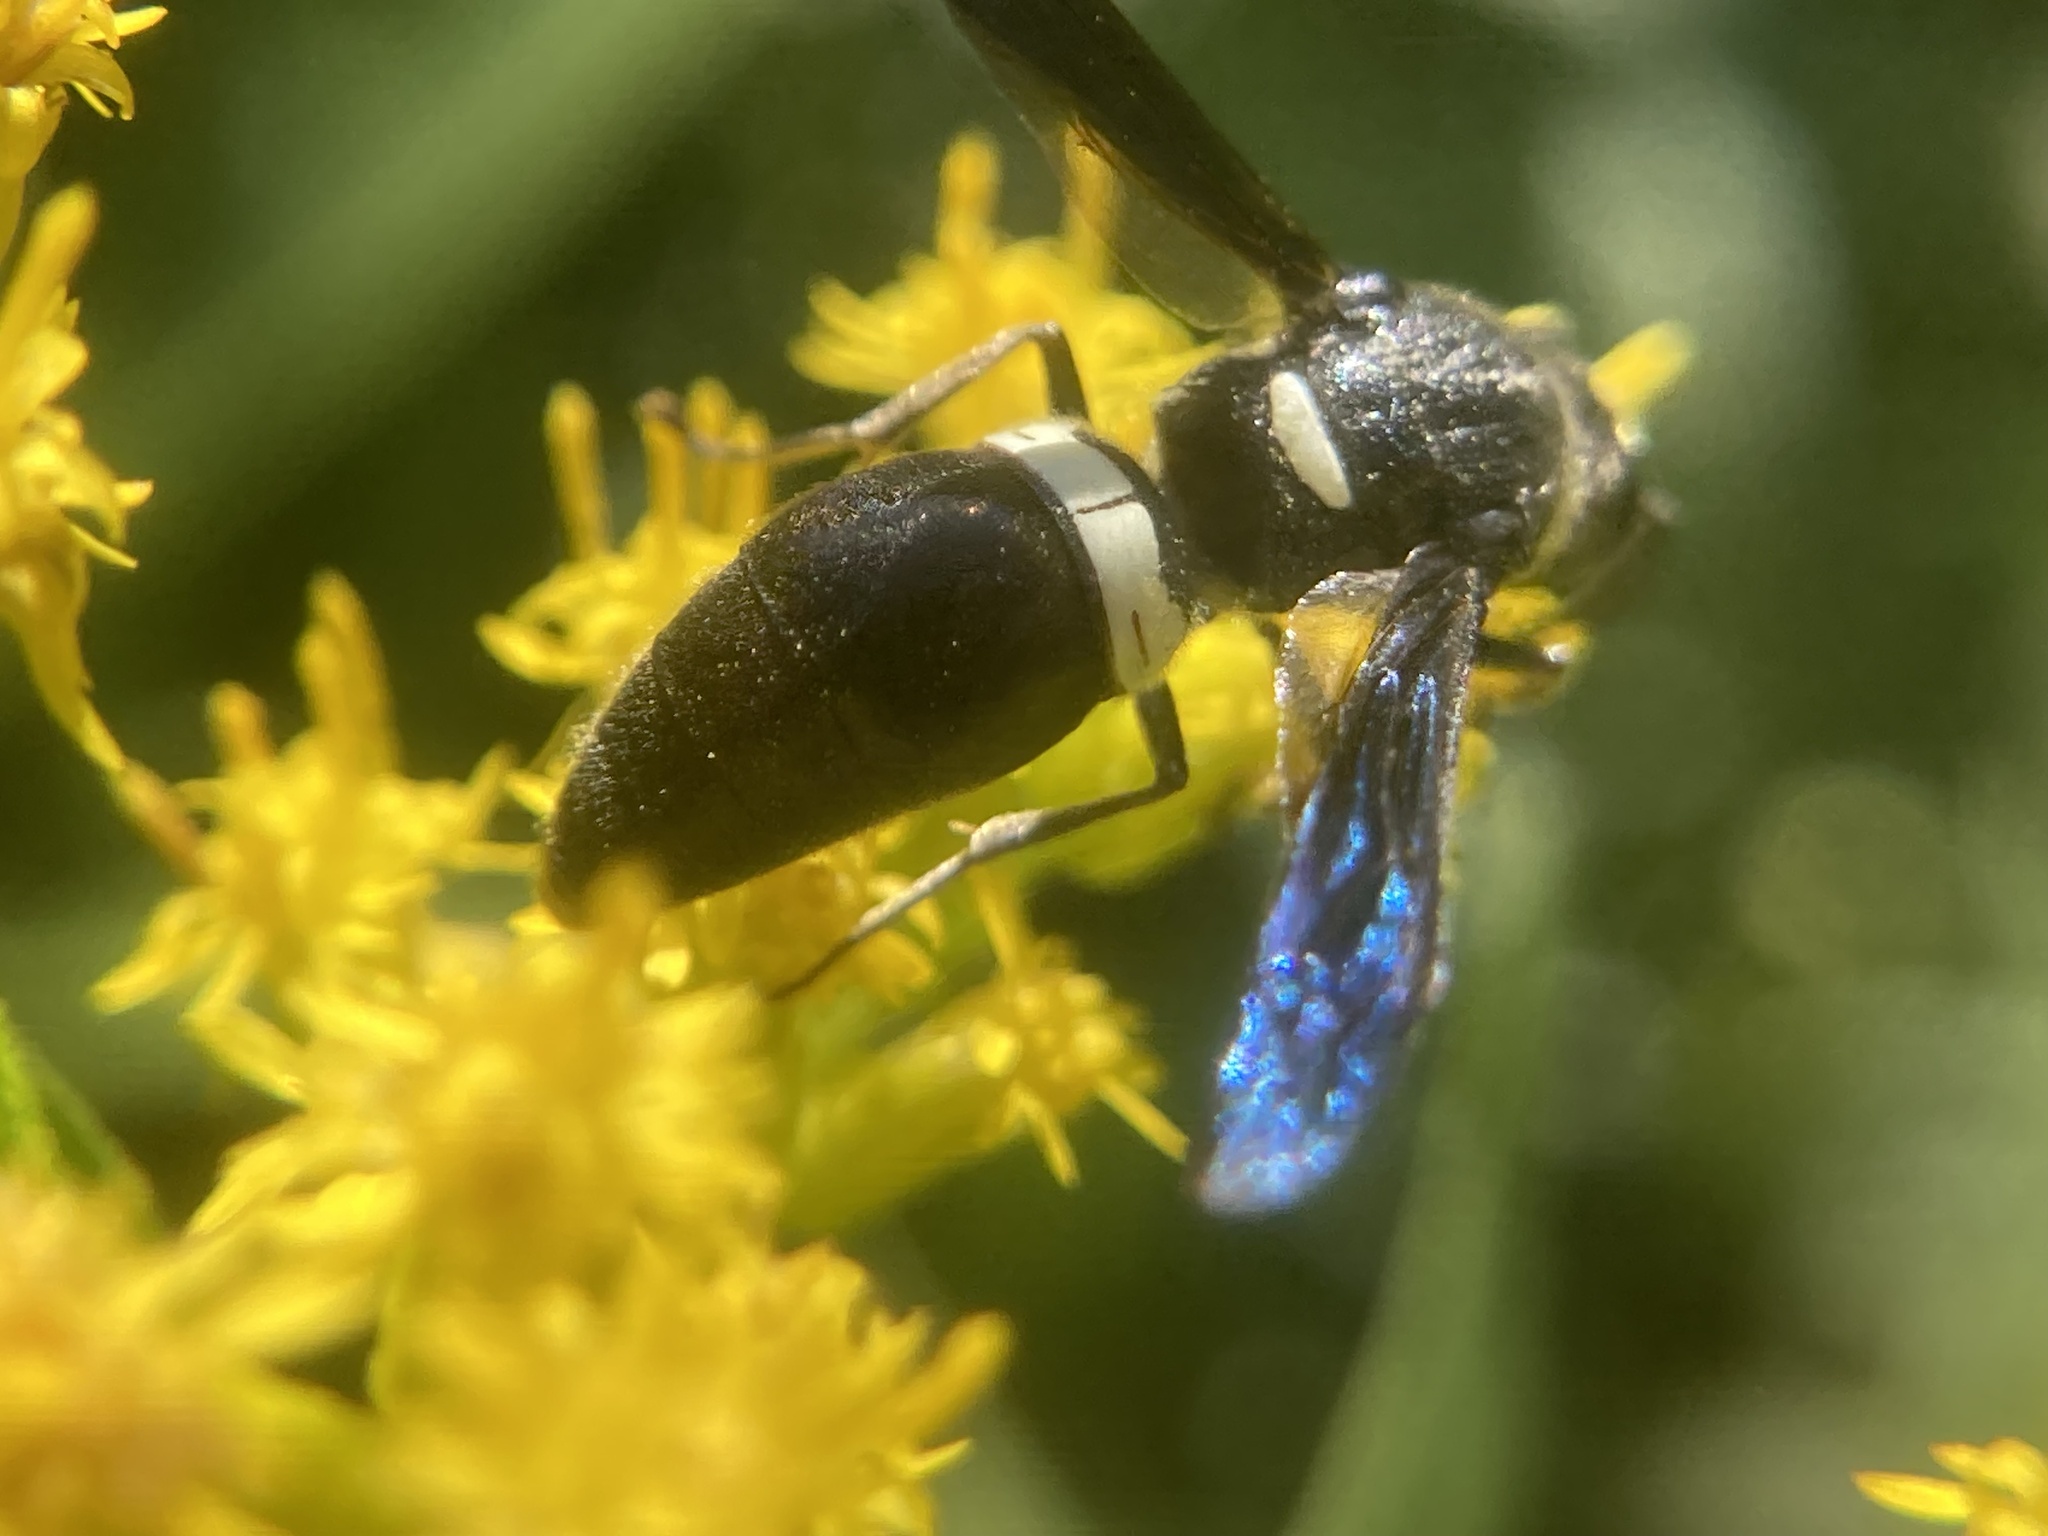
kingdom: Animalia
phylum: Arthropoda
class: Insecta
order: Hymenoptera
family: Eumenidae
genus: Monobia
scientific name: Monobia quadridens
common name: Four-toothed mason wasp
